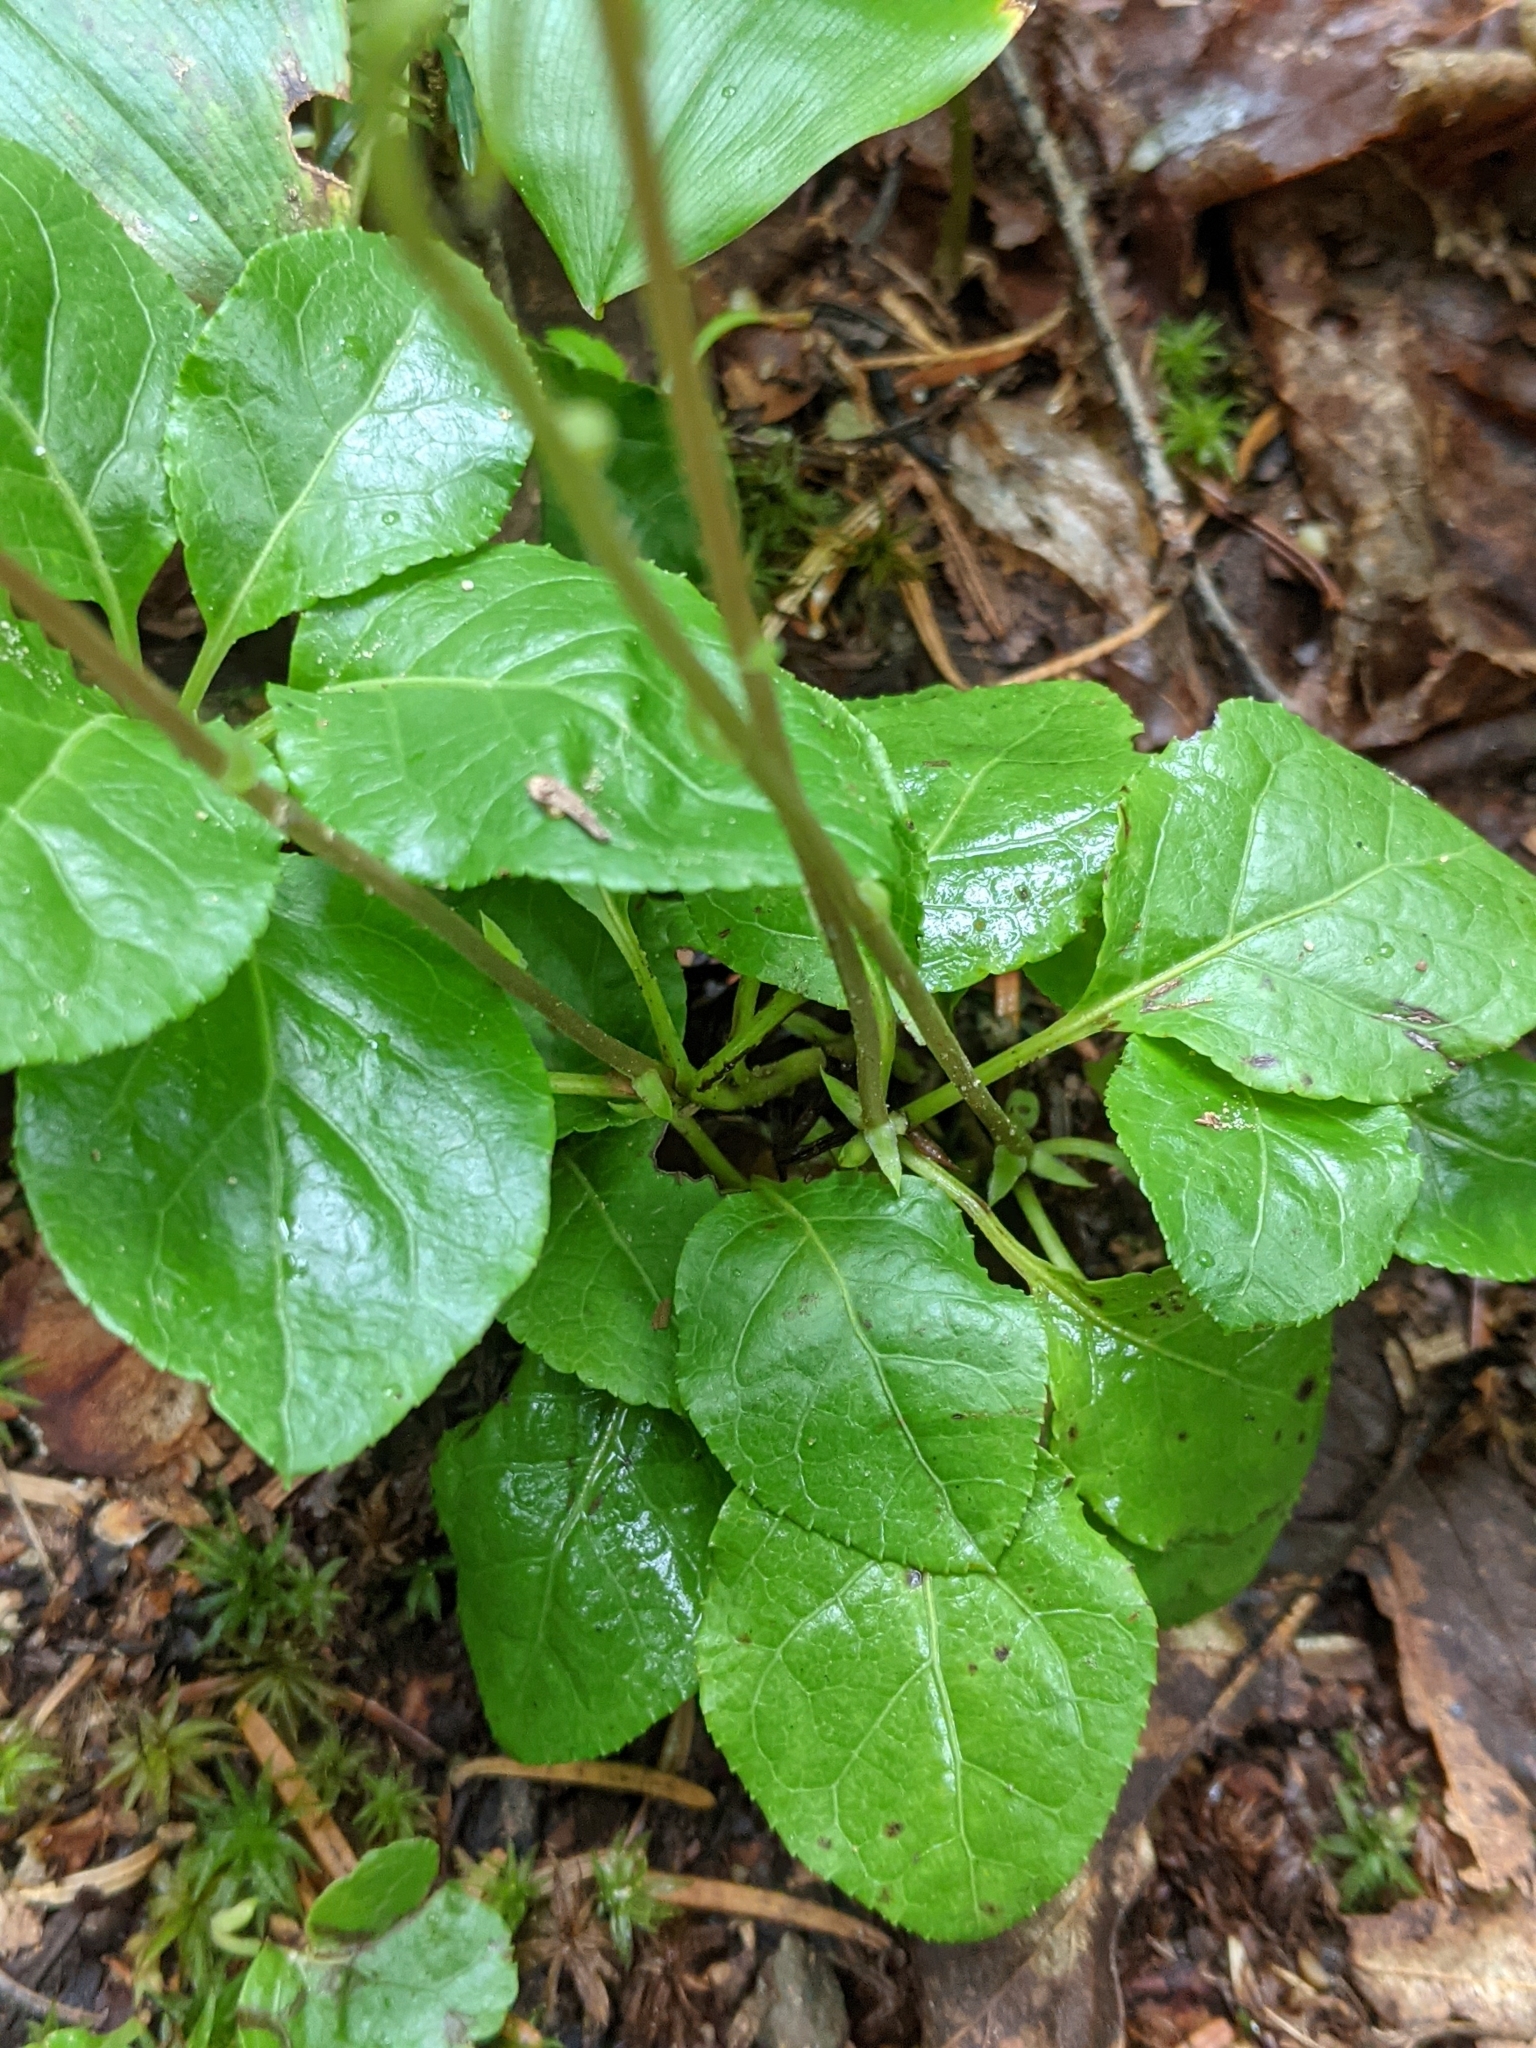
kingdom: Plantae
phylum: Tracheophyta
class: Magnoliopsida
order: Ericales
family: Ericaceae
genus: Orthilia
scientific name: Orthilia secunda
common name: One-sided orthilia
